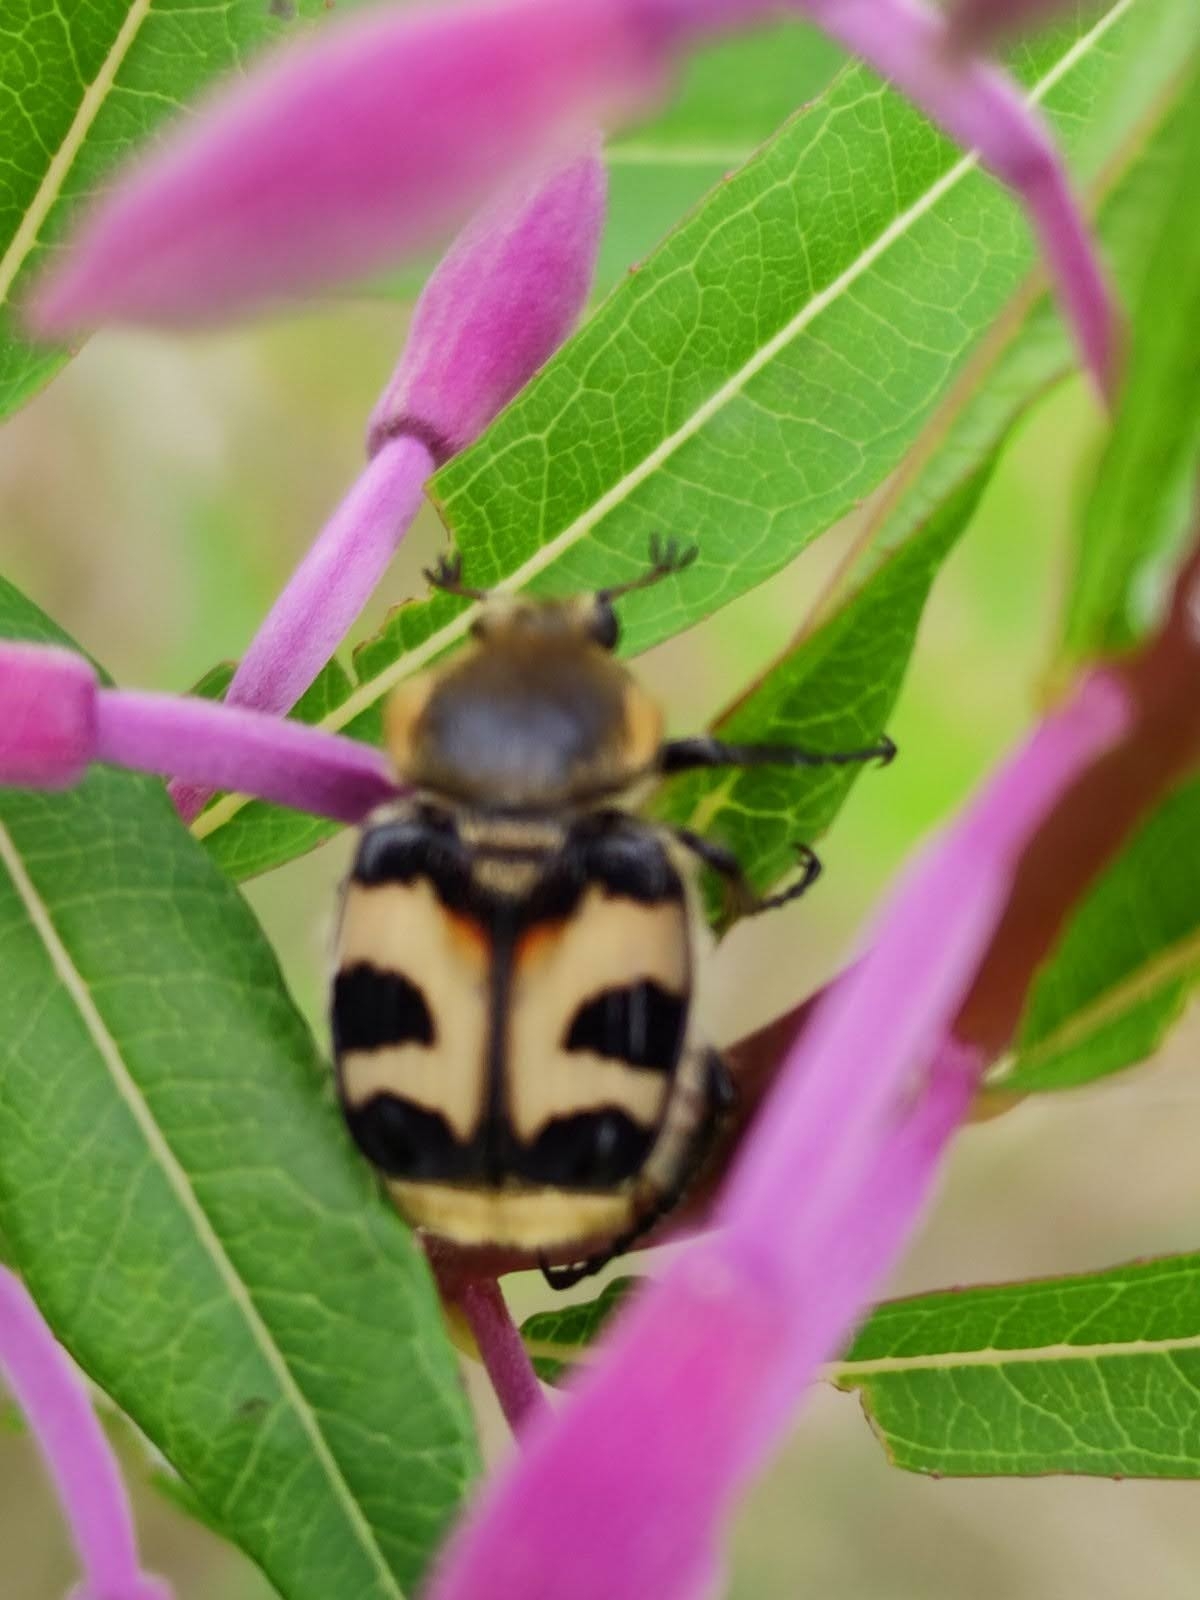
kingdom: Animalia
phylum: Arthropoda
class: Insecta
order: Coleoptera
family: Scarabaeidae
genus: Trichius
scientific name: Trichius fasciatus
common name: Bee beetle
